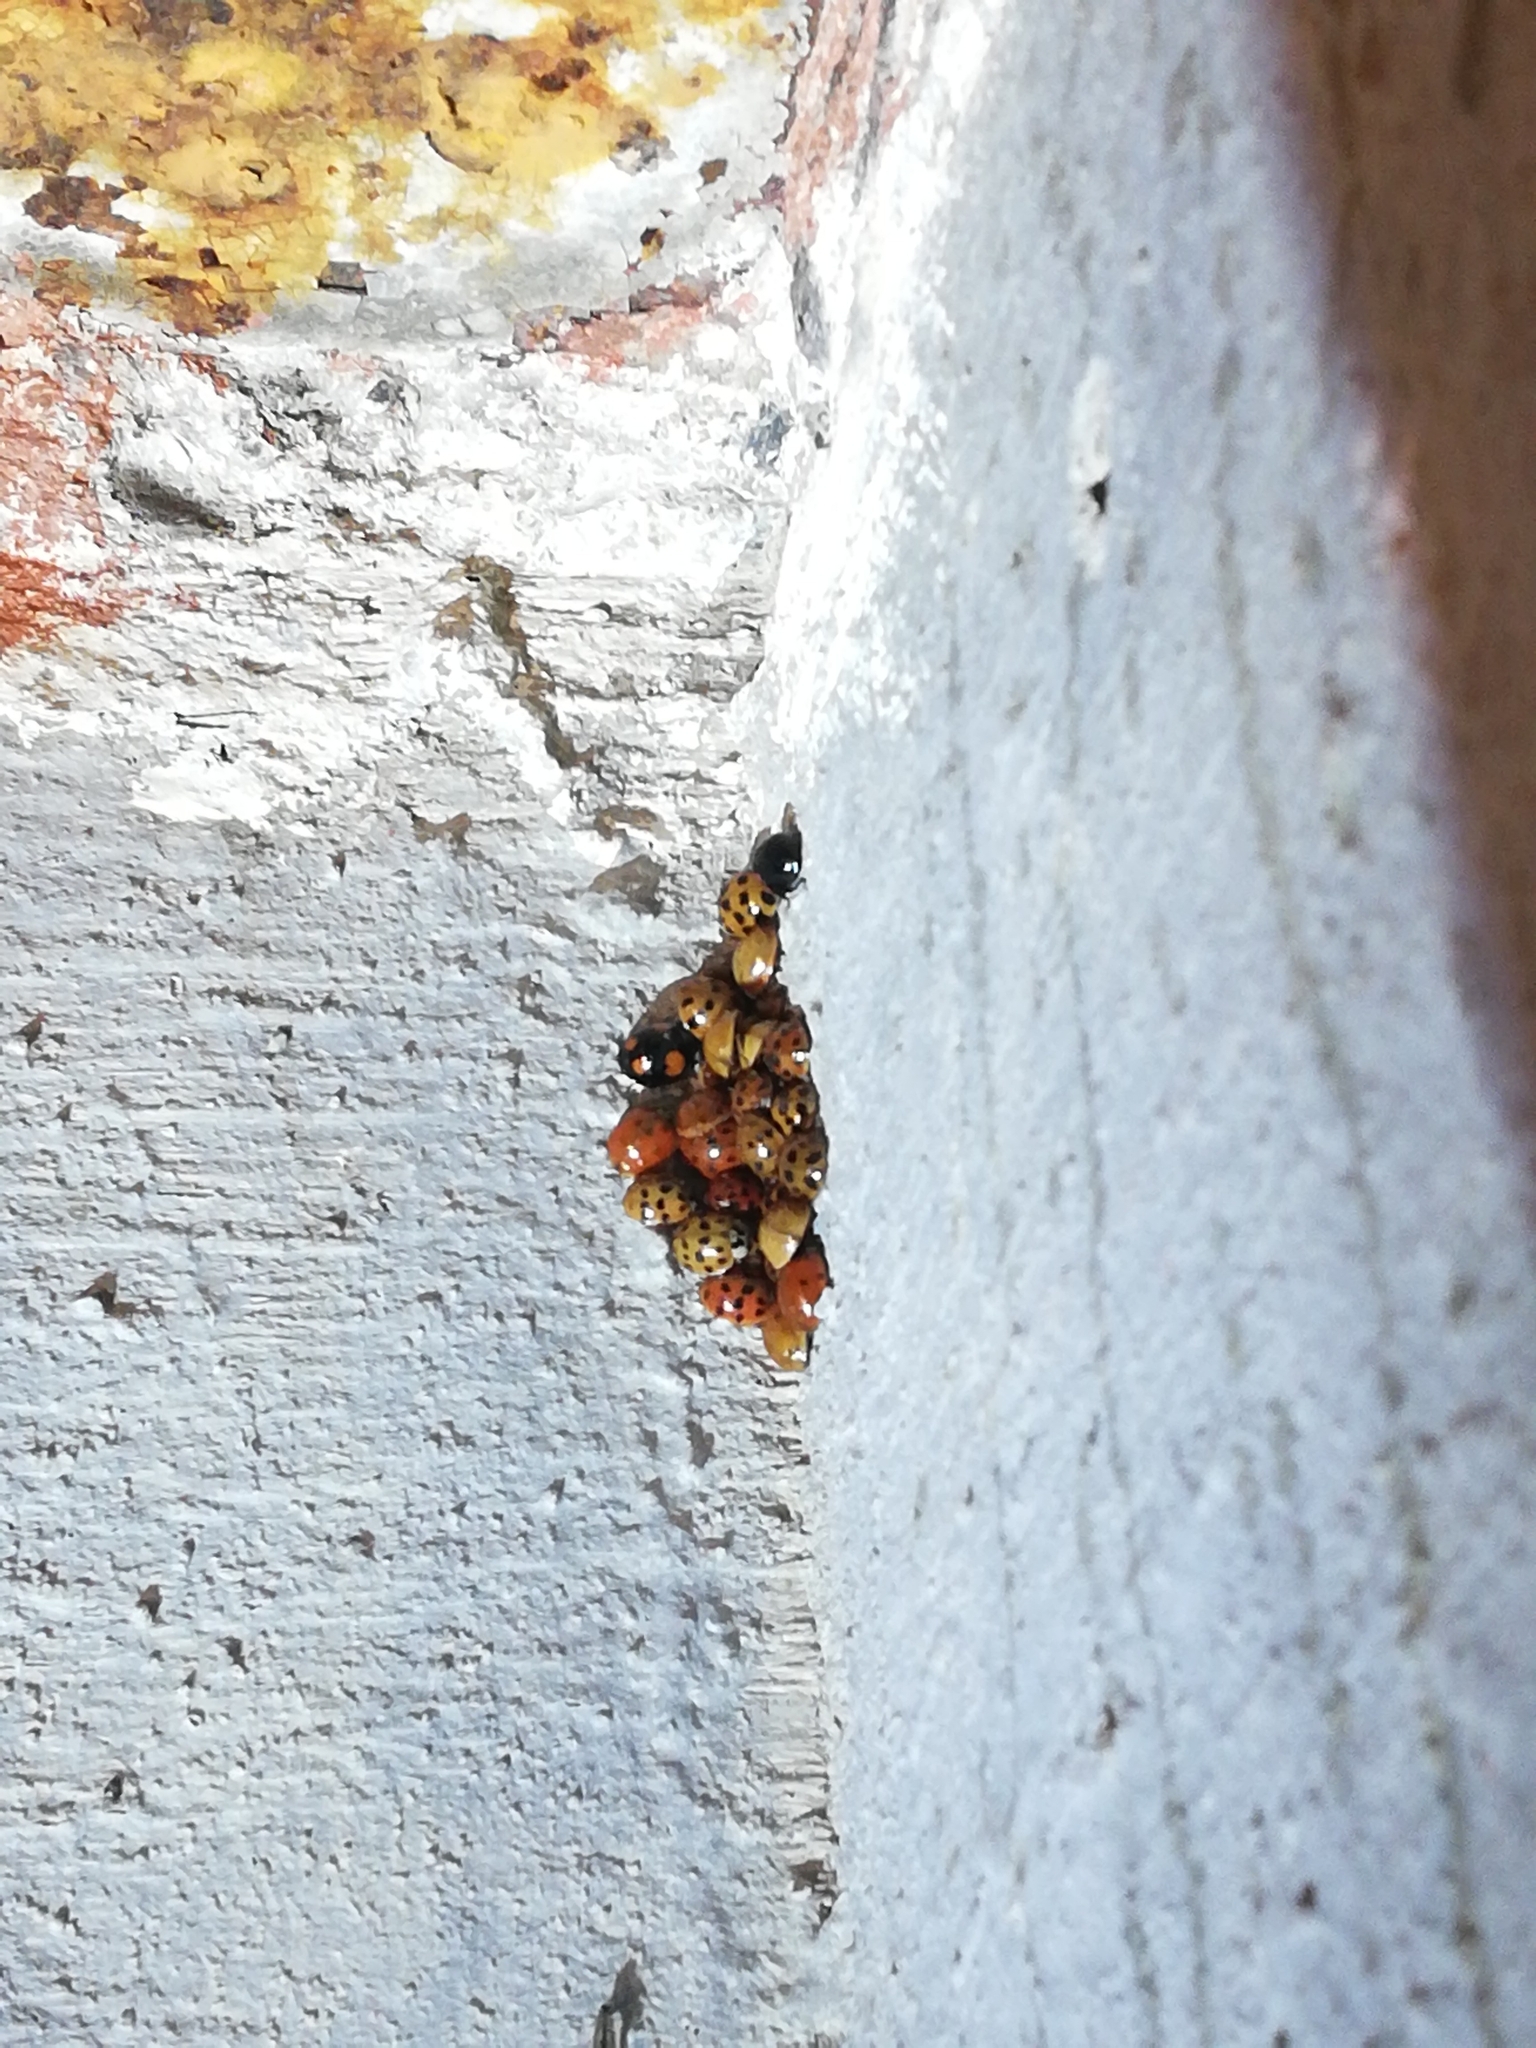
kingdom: Animalia
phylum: Arthropoda
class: Insecta
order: Coleoptera
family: Coccinellidae
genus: Harmonia
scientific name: Harmonia axyridis
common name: Harlequin ladybird
